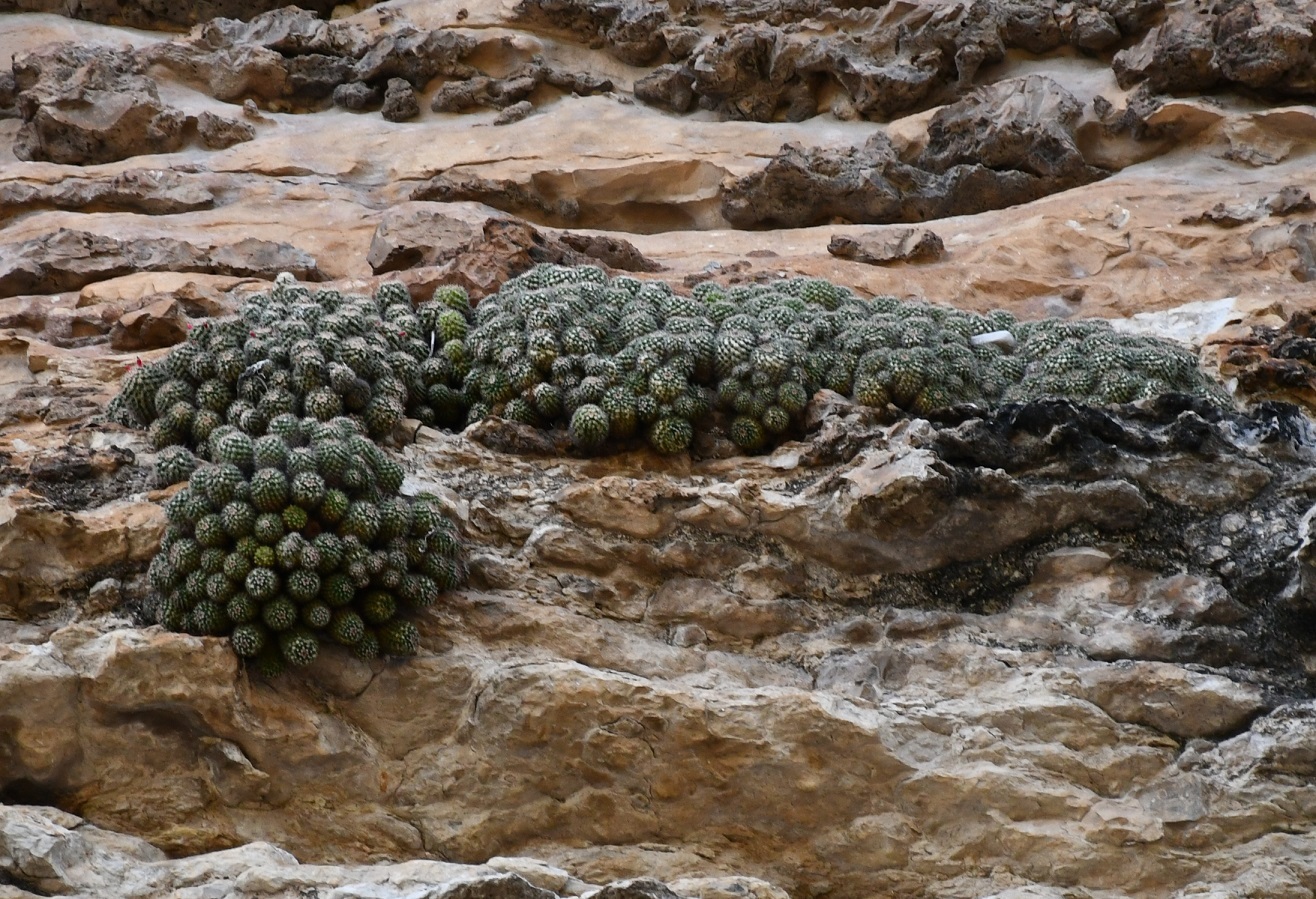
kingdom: Plantae
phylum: Tracheophyta
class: Magnoliopsida
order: Caryophyllales
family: Cactaceae
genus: Mammillaria
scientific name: Mammillaria voburnensis
